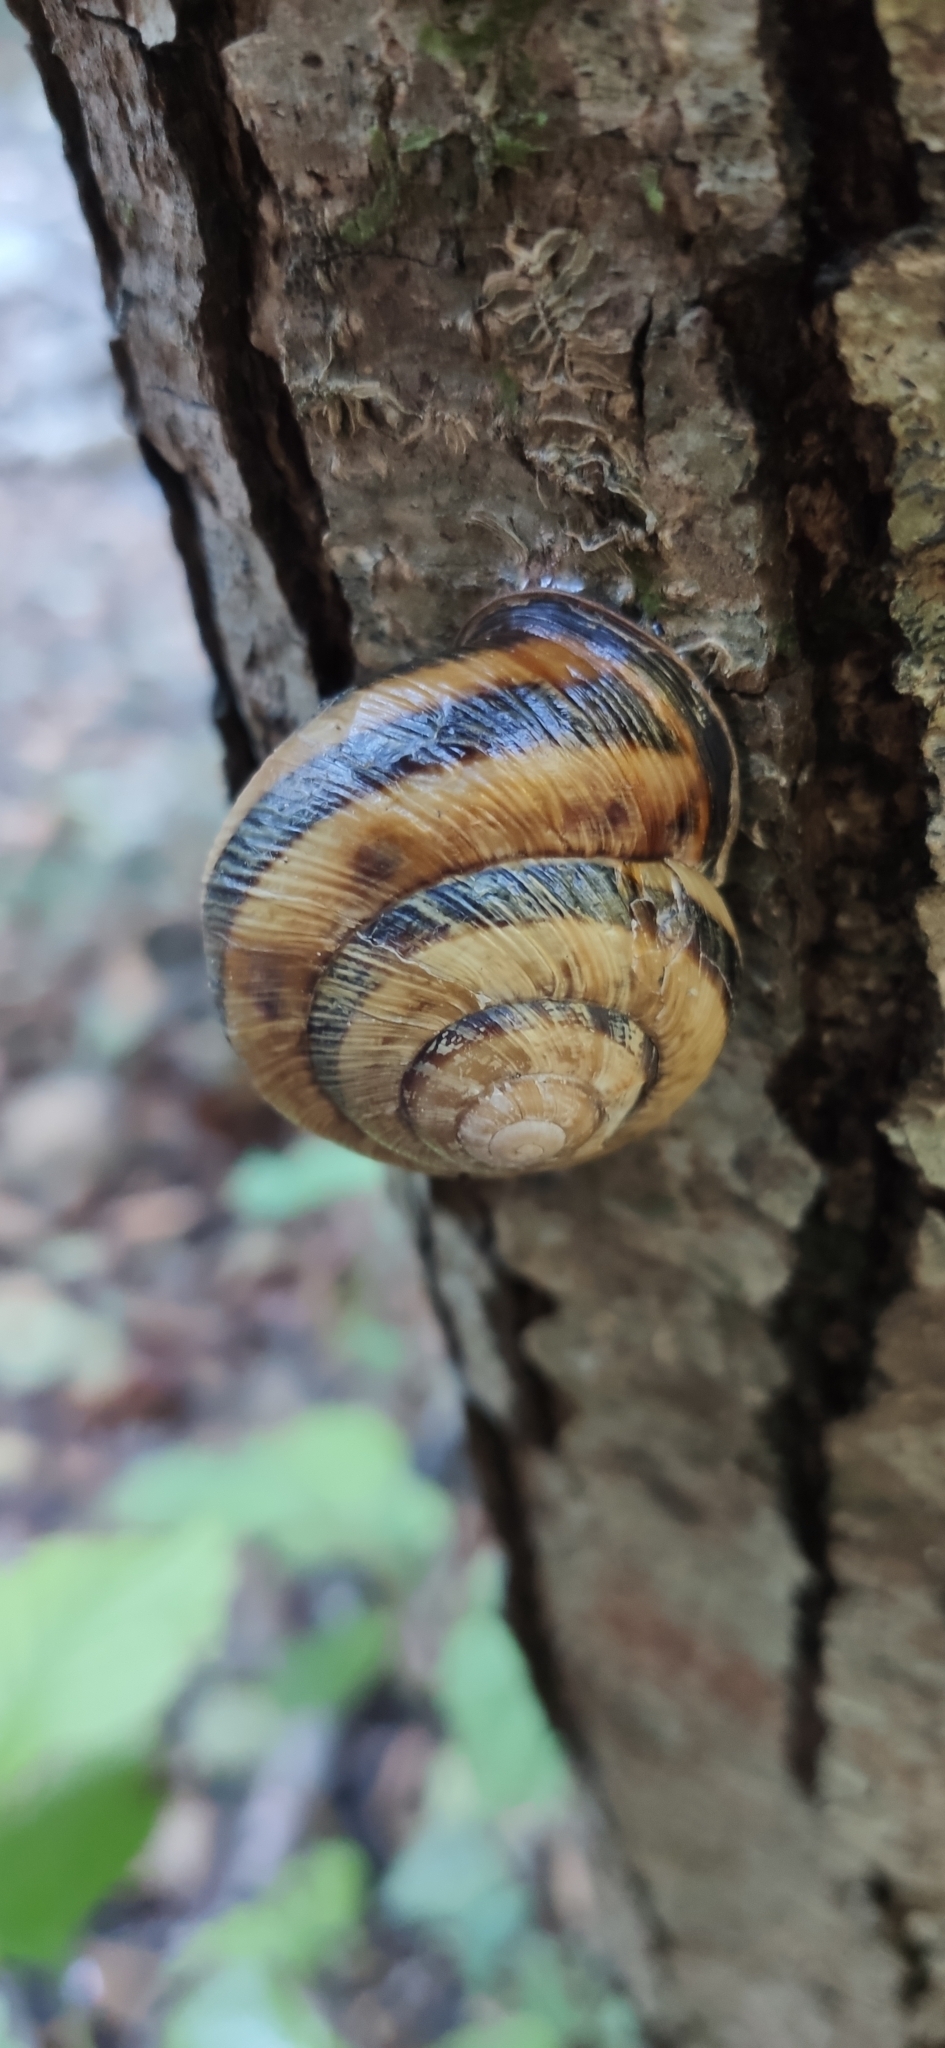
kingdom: Animalia
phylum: Mollusca
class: Gastropoda
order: Stylommatophora
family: Helicidae
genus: Caucasotachea
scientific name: Caucasotachea atrolabiata
